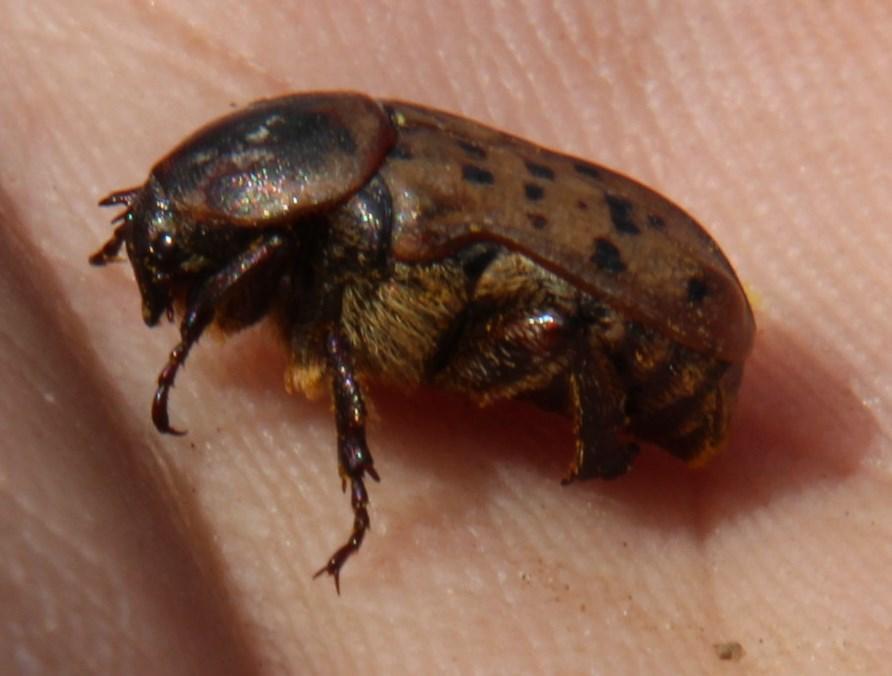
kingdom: Animalia
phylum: Arthropoda
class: Insecta
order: Coleoptera
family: Scarabaeidae
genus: Atrichelaphinis
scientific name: Atrichelaphinis tigrina
